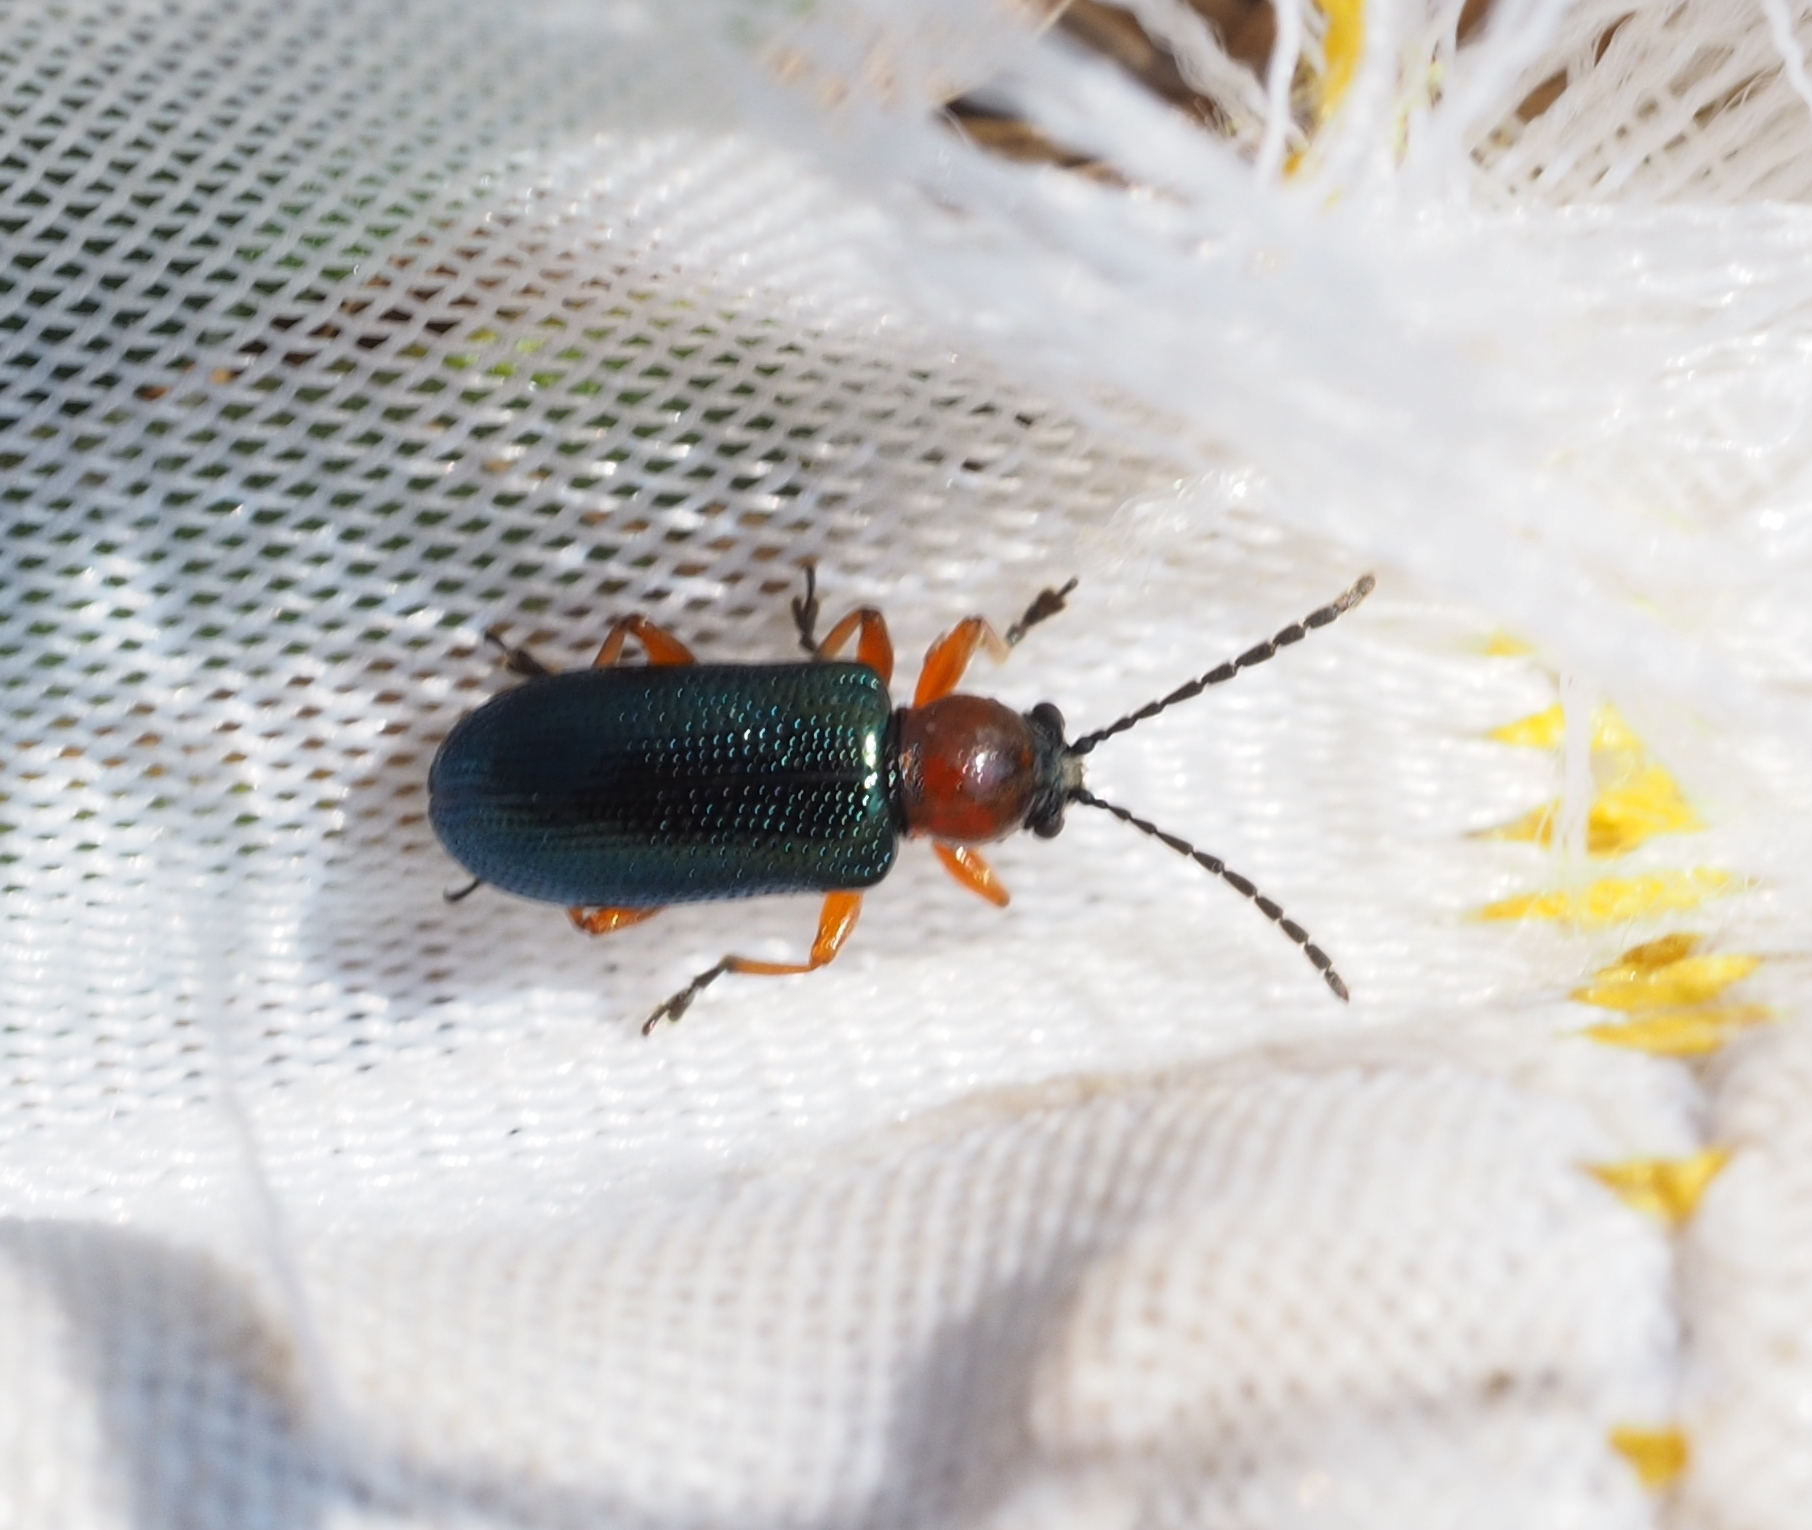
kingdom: Animalia
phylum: Arthropoda
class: Insecta
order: Coleoptera
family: Chrysomelidae
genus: Oulema
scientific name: Oulema melanopus
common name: Cereal leaf beetle
